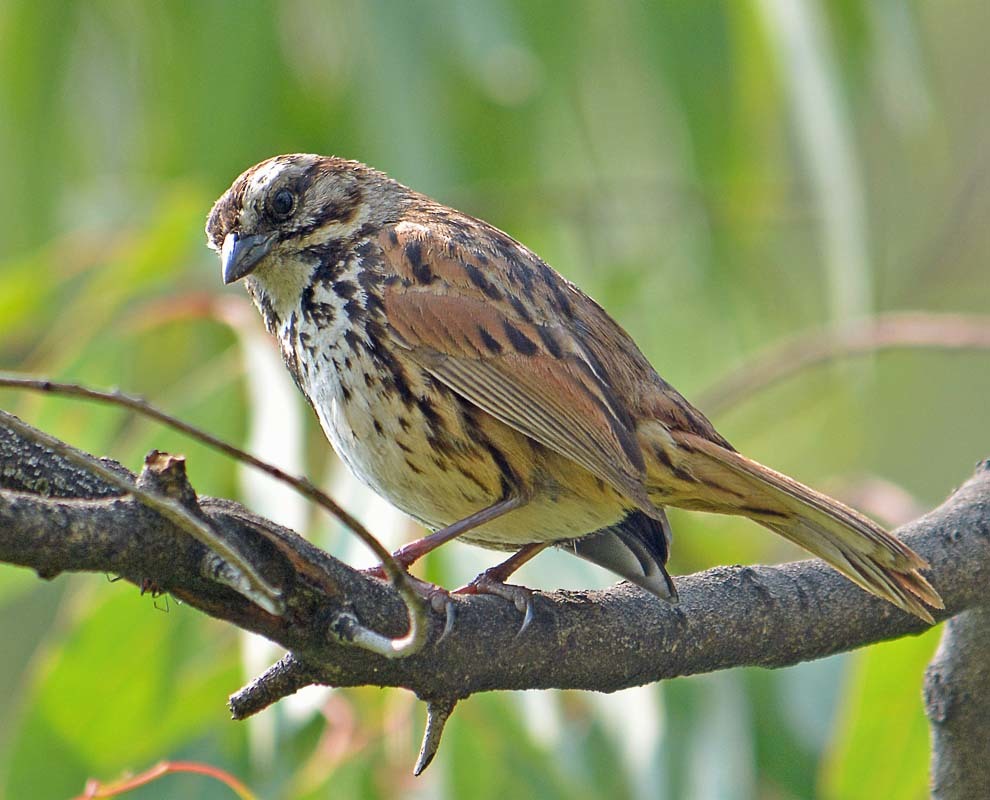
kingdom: Animalia
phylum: Chordata
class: Aves
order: Passeriformes
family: Passerellidae
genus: Melospiza
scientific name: Melospiza melodia
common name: Song sparrow
